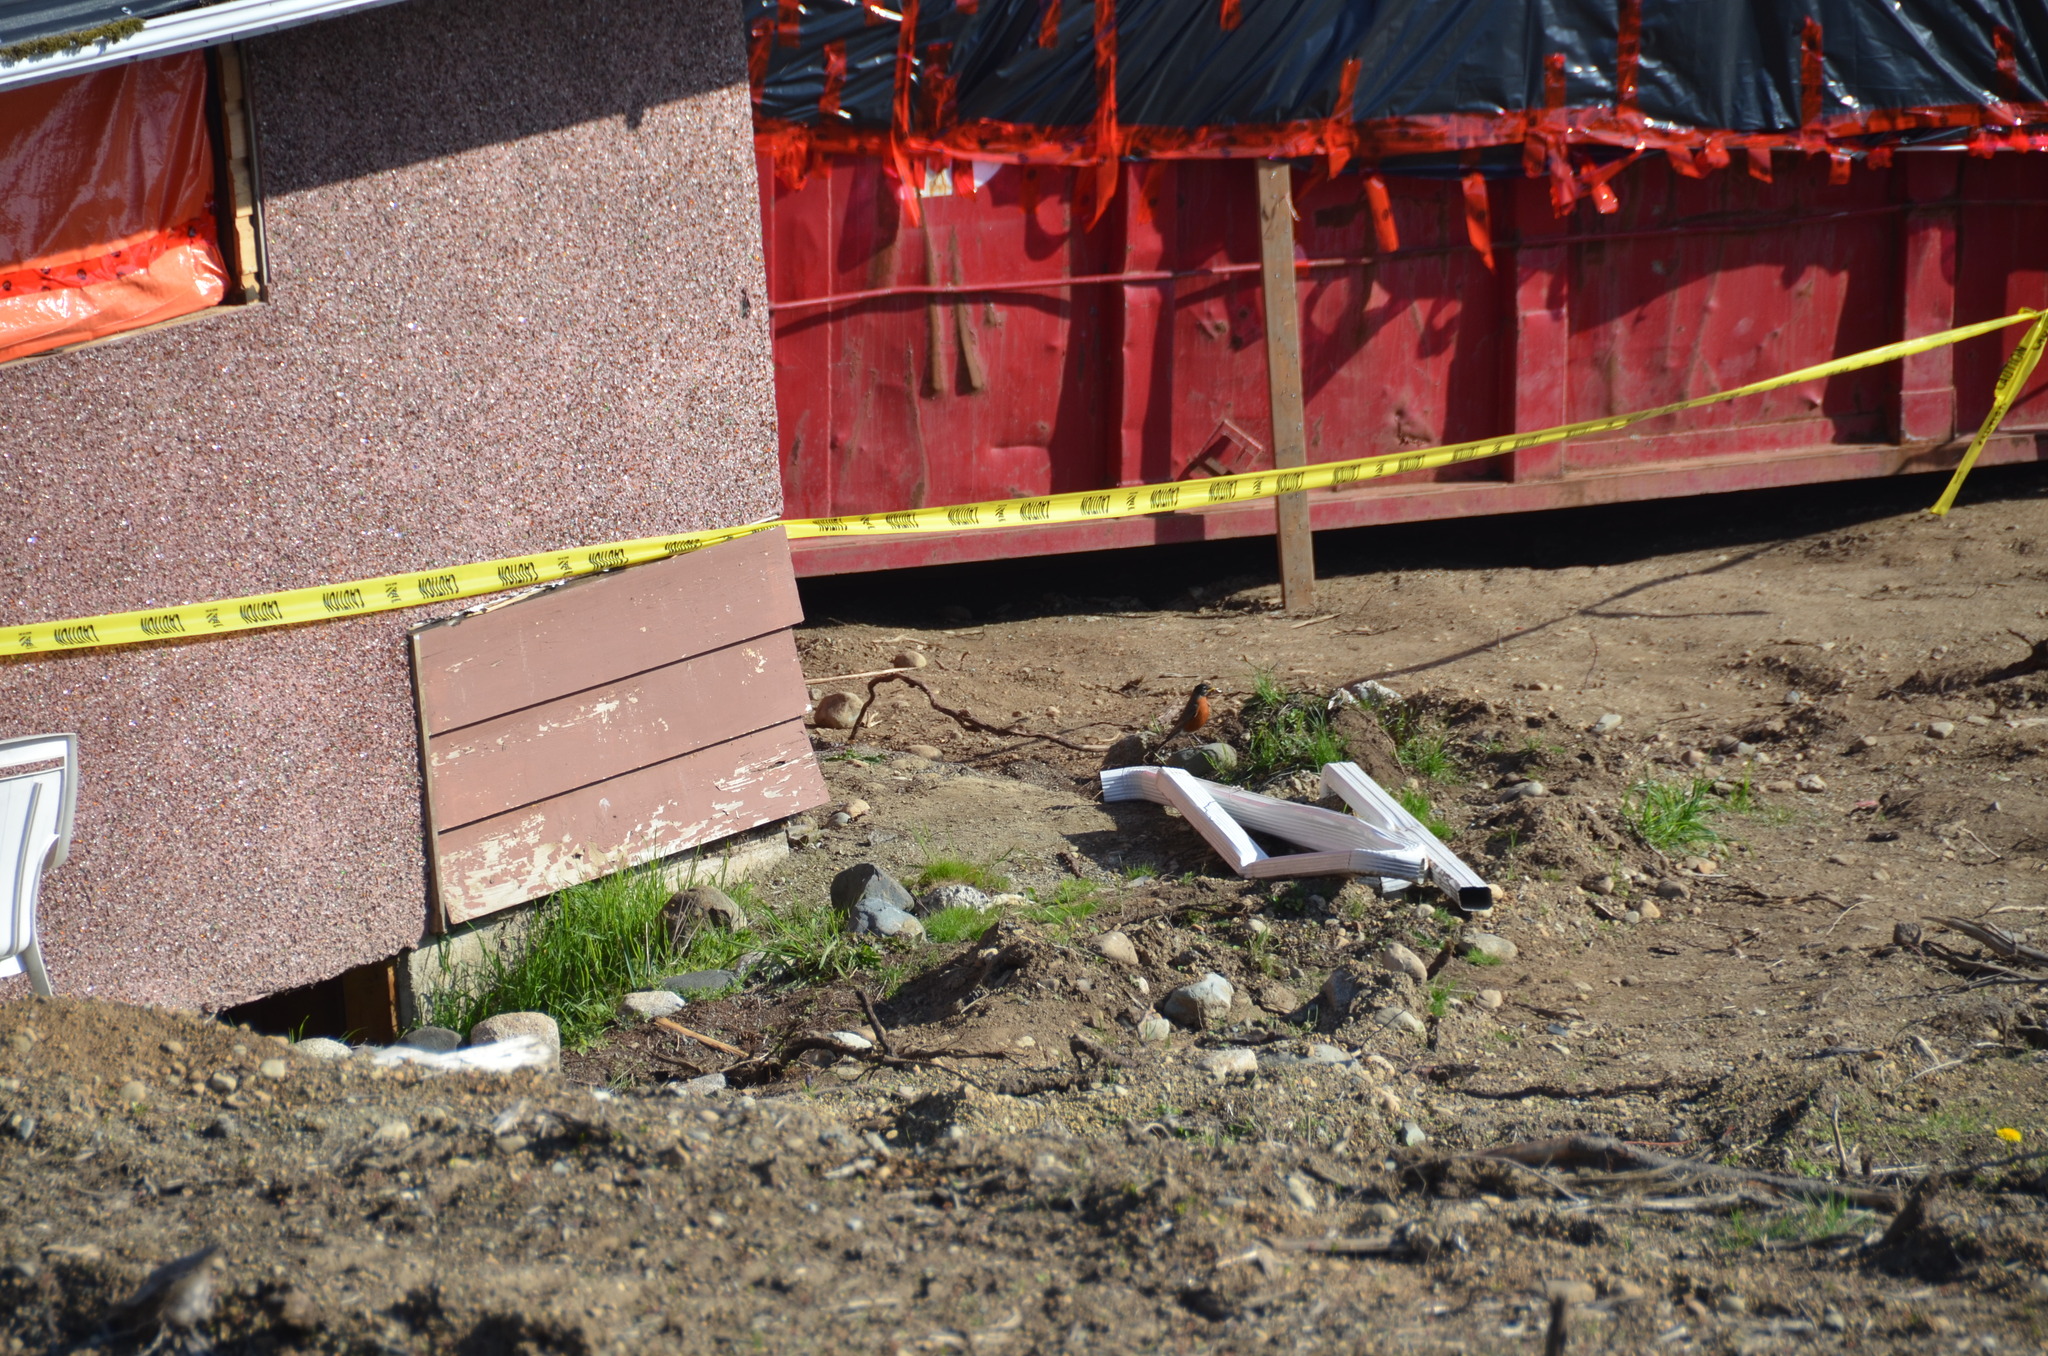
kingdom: Animalia
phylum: Chordata
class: Aves
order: Passeriformes
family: Turdidae
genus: Turdus
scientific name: Turdus migratorius
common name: American robin
